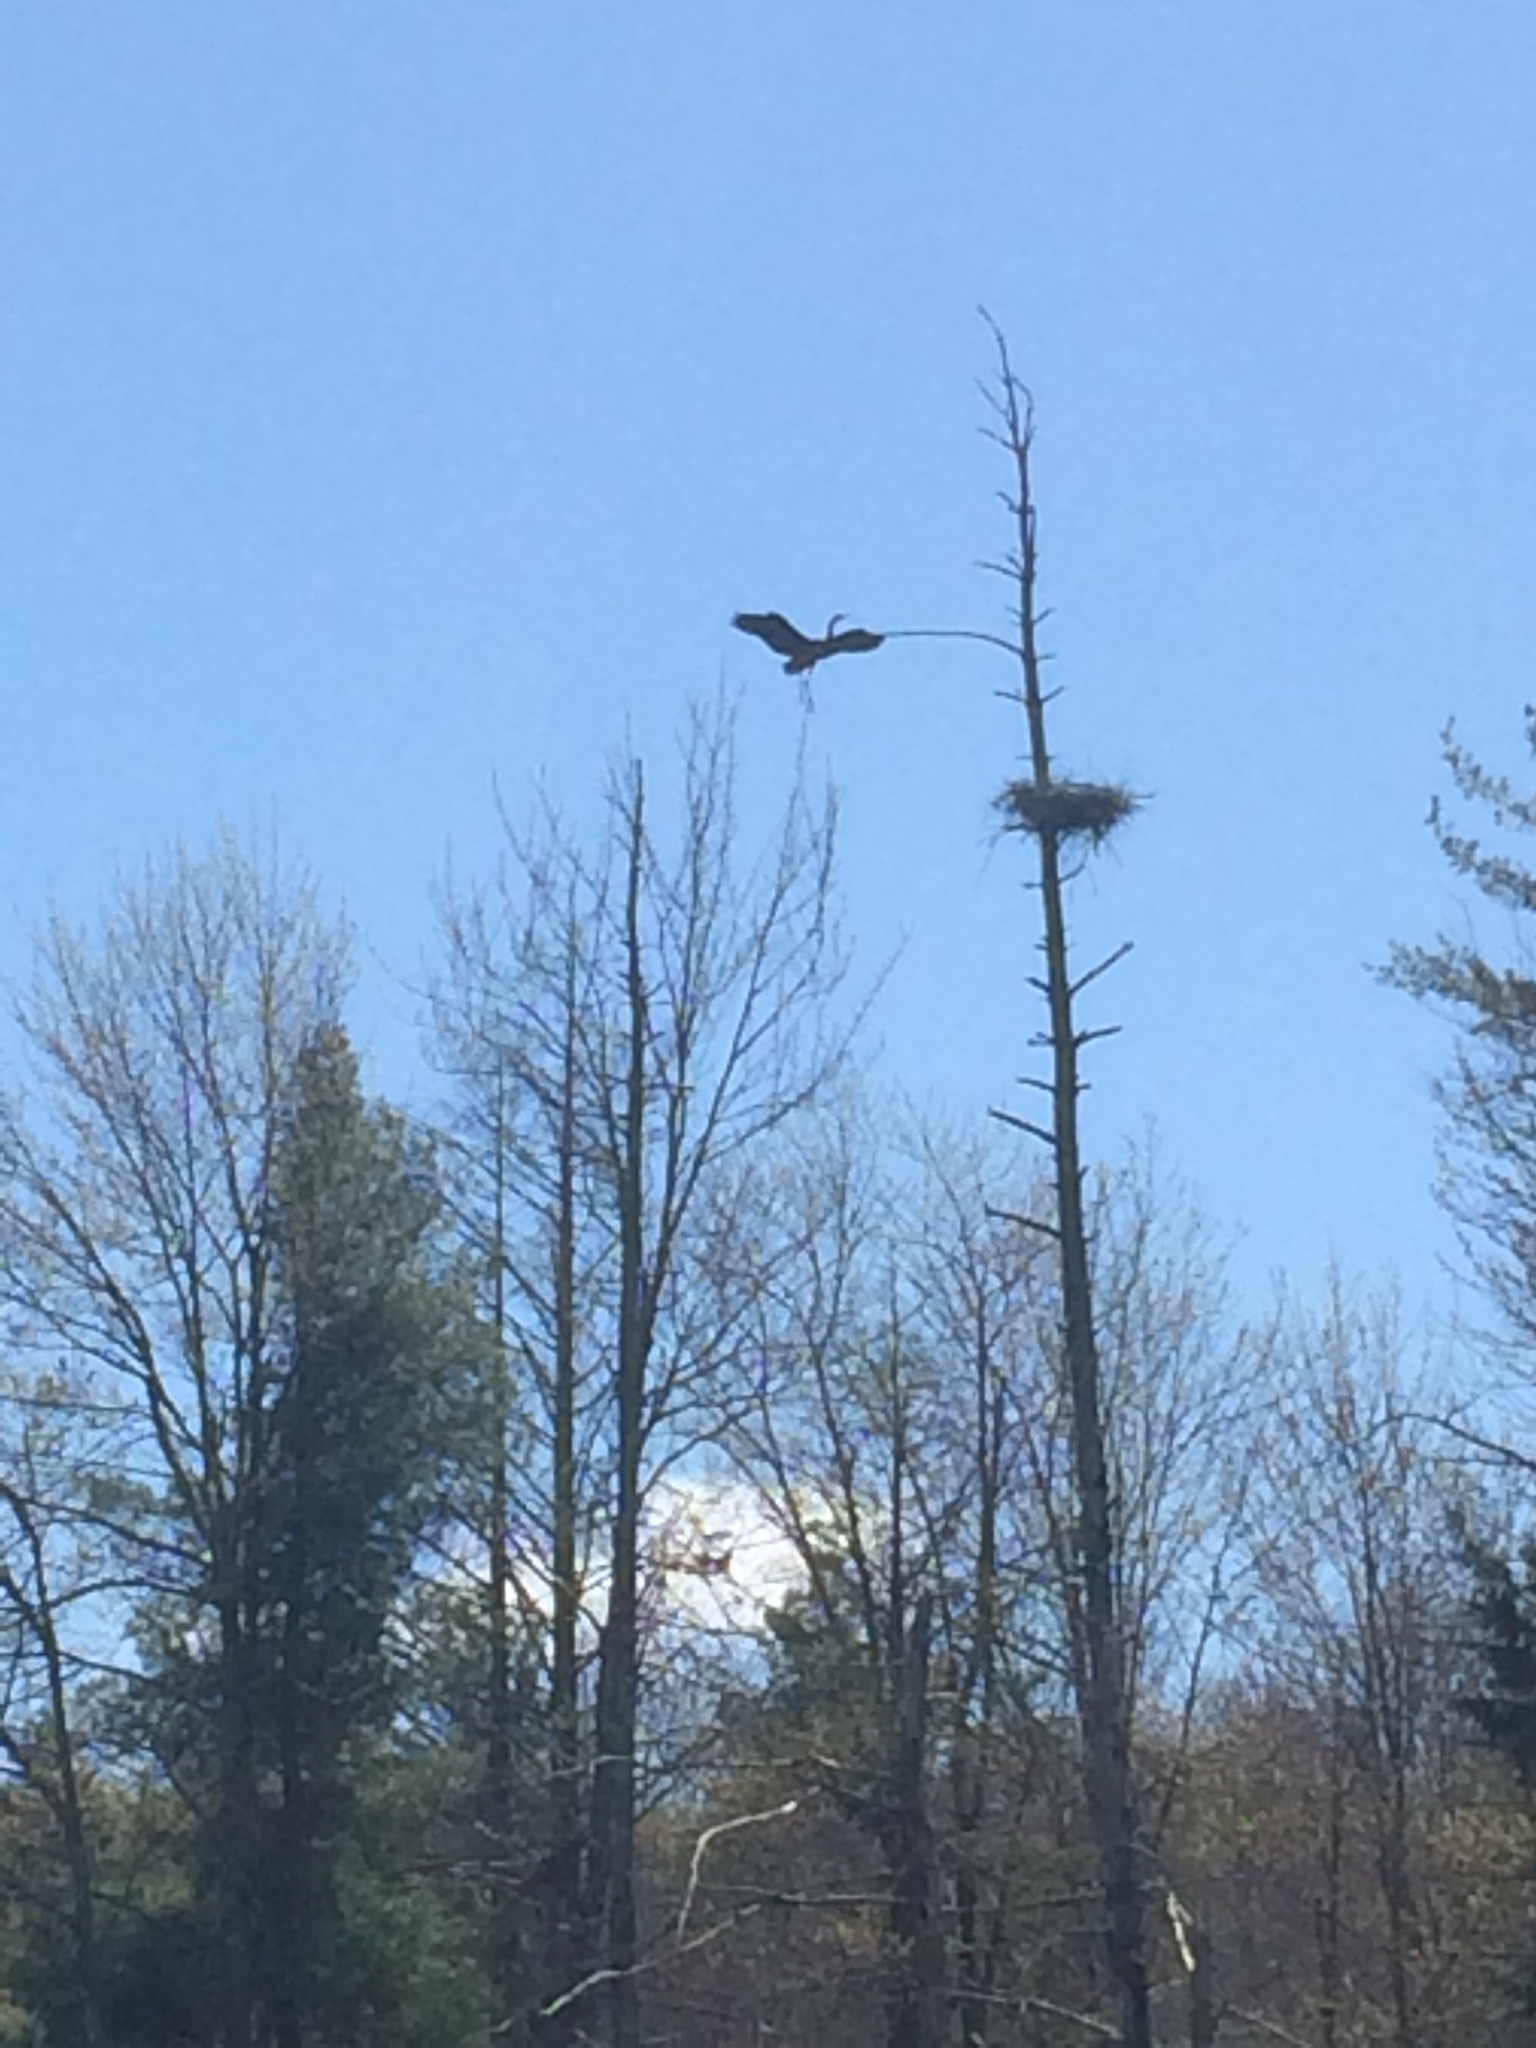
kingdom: Animalia
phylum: Chordata
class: Aves
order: Pelecaniformes
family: Ardeidae
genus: Ardea
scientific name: Ardea herodias
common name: Great blue heron
